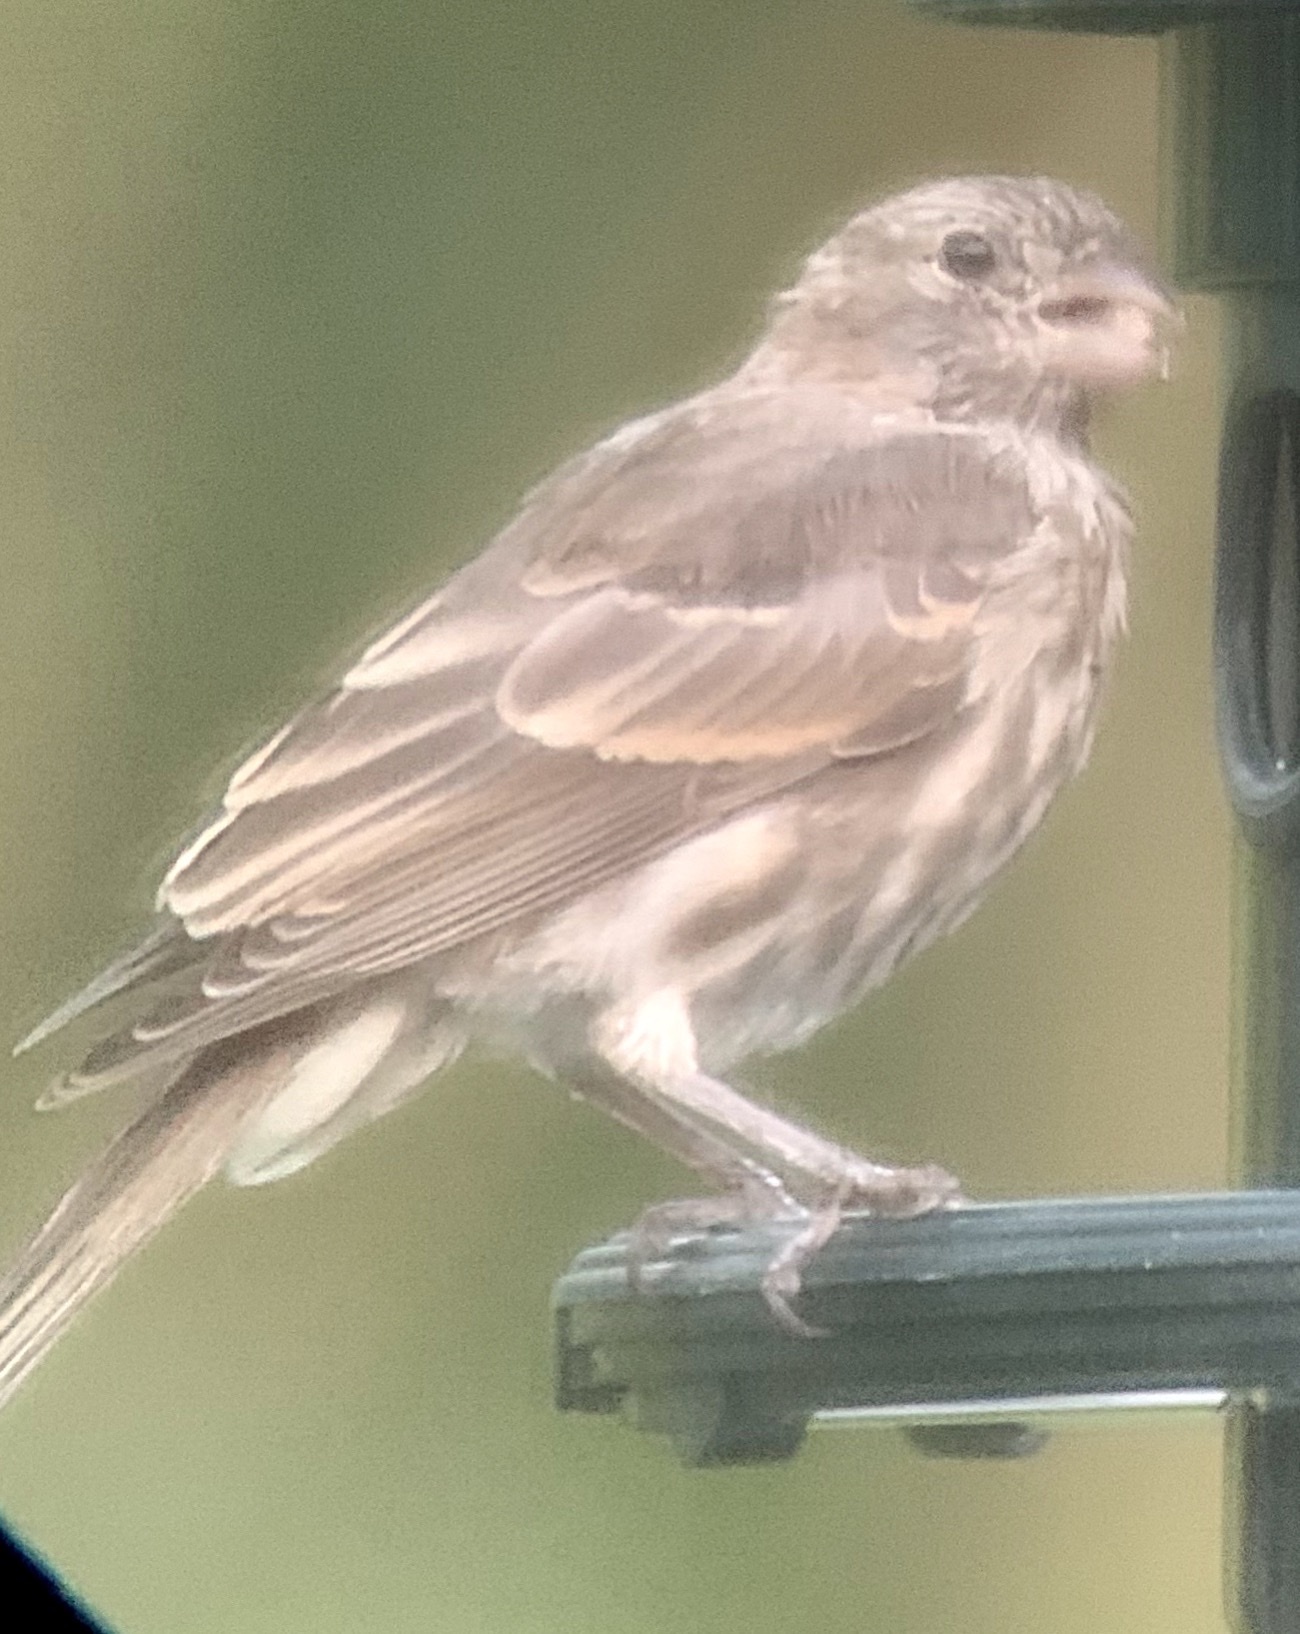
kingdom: Animalia
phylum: Chordata
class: Aves
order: Passeriformes
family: Fringillidae
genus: Haemorhous
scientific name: Haemorhous mexicanus
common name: House finch
